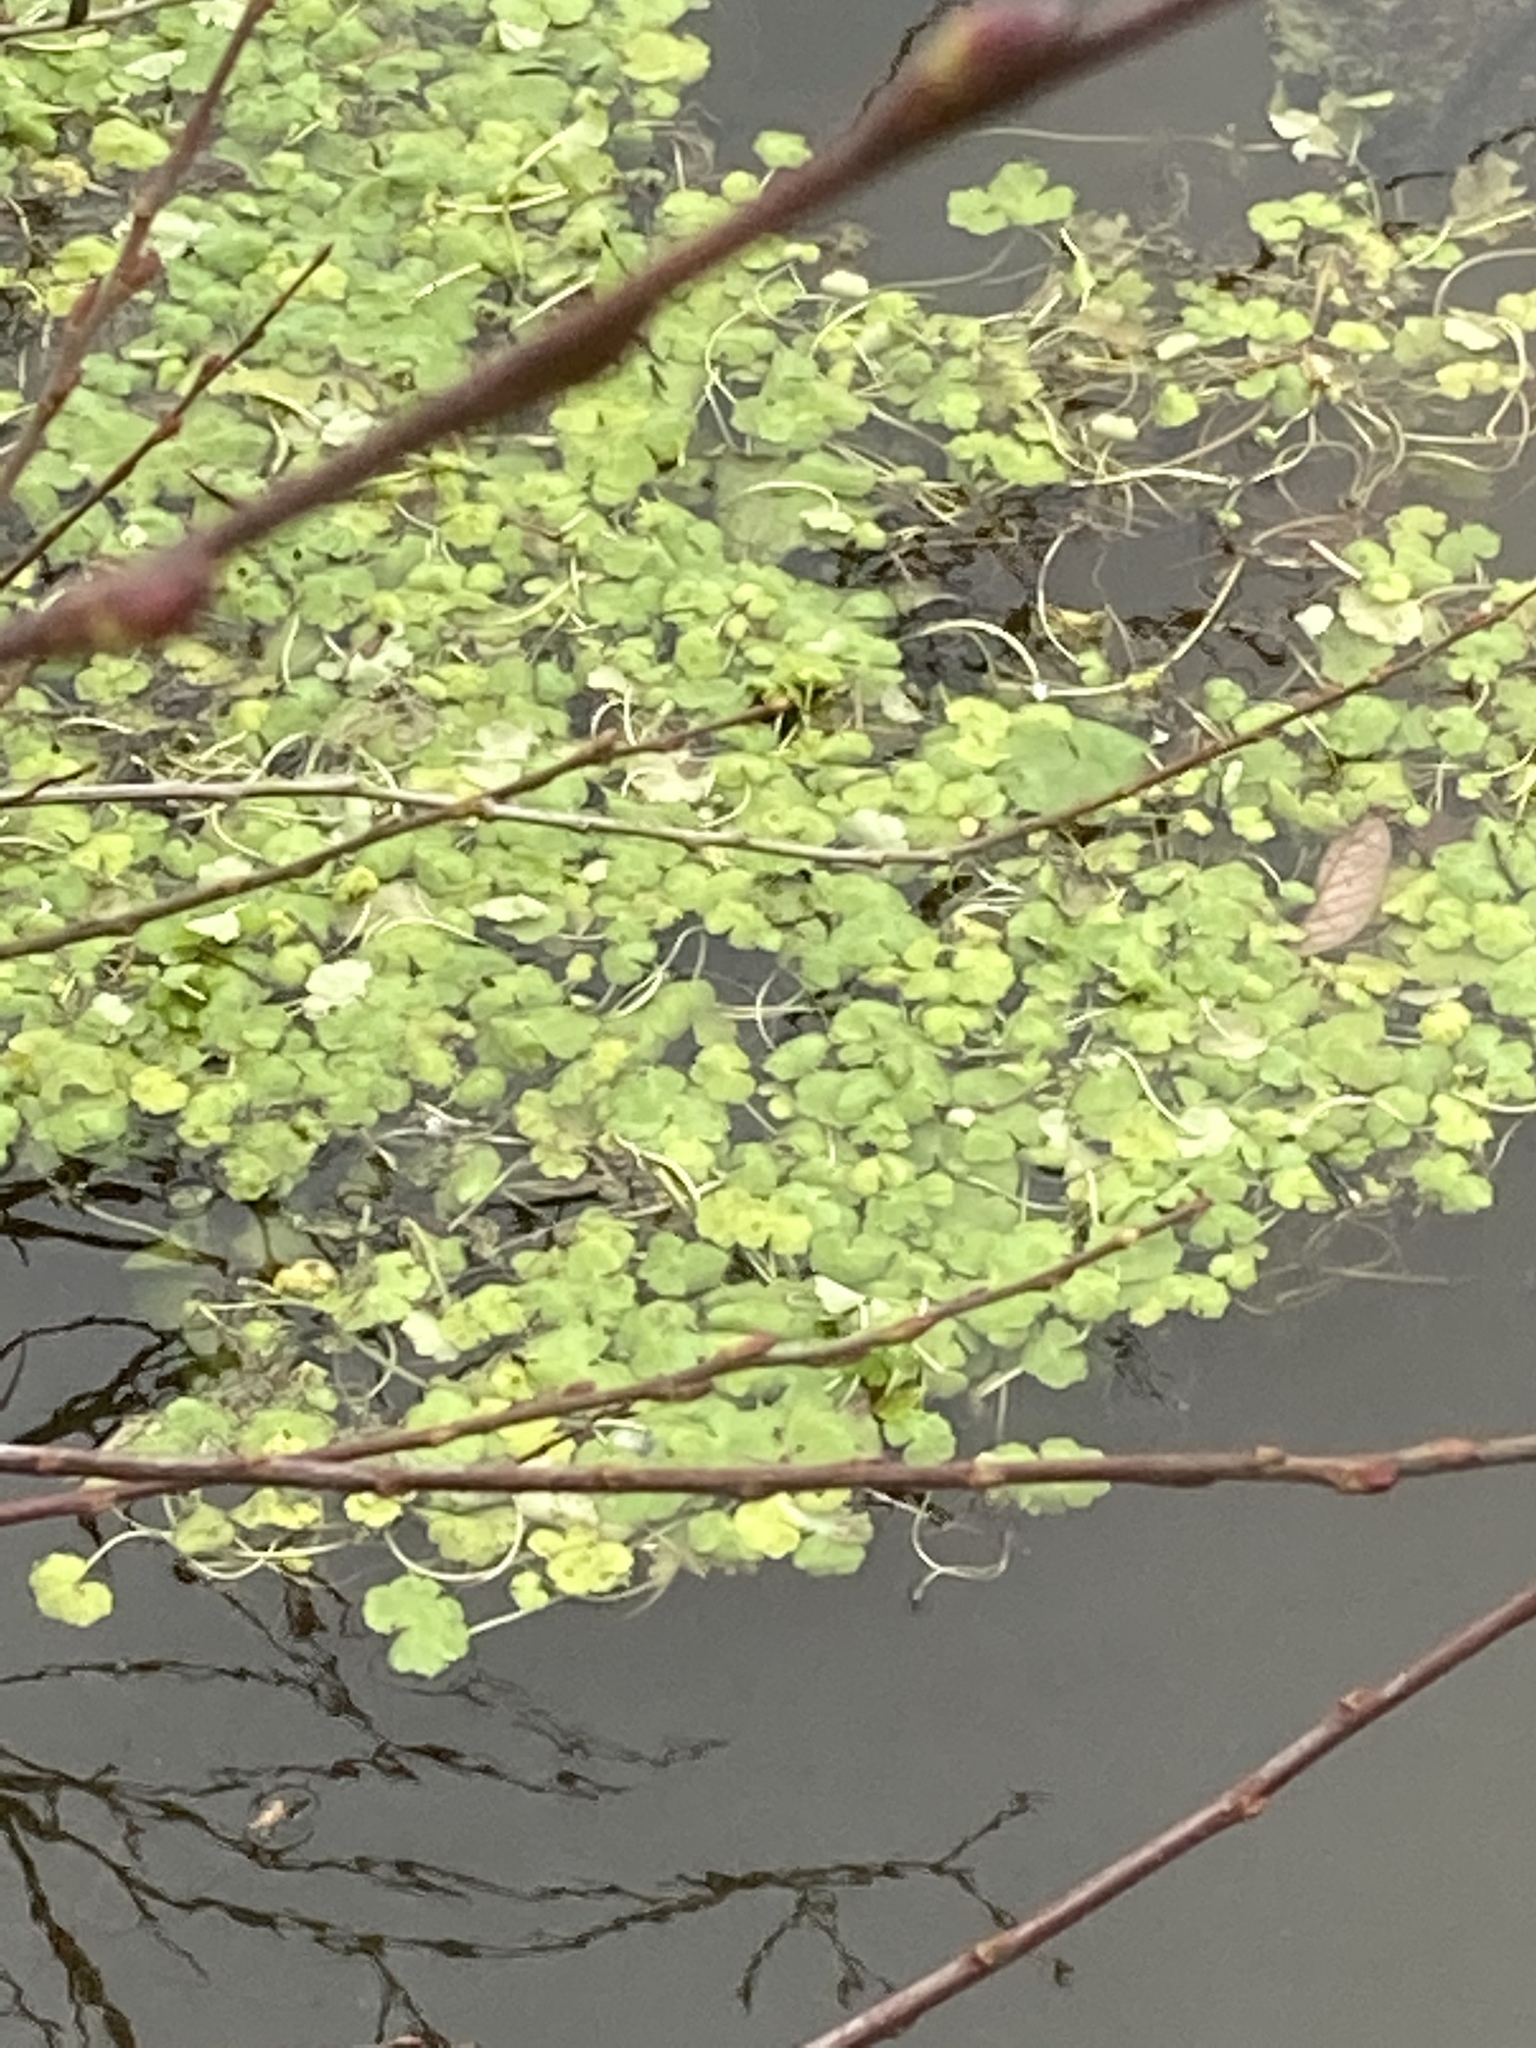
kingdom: Plantae
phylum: Tracheophyta
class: Magnoliopsida
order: Apiales
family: Araliaceae
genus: Hydrocotyle
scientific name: Hydrocotyle ranunculoides
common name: Floating pennywort
